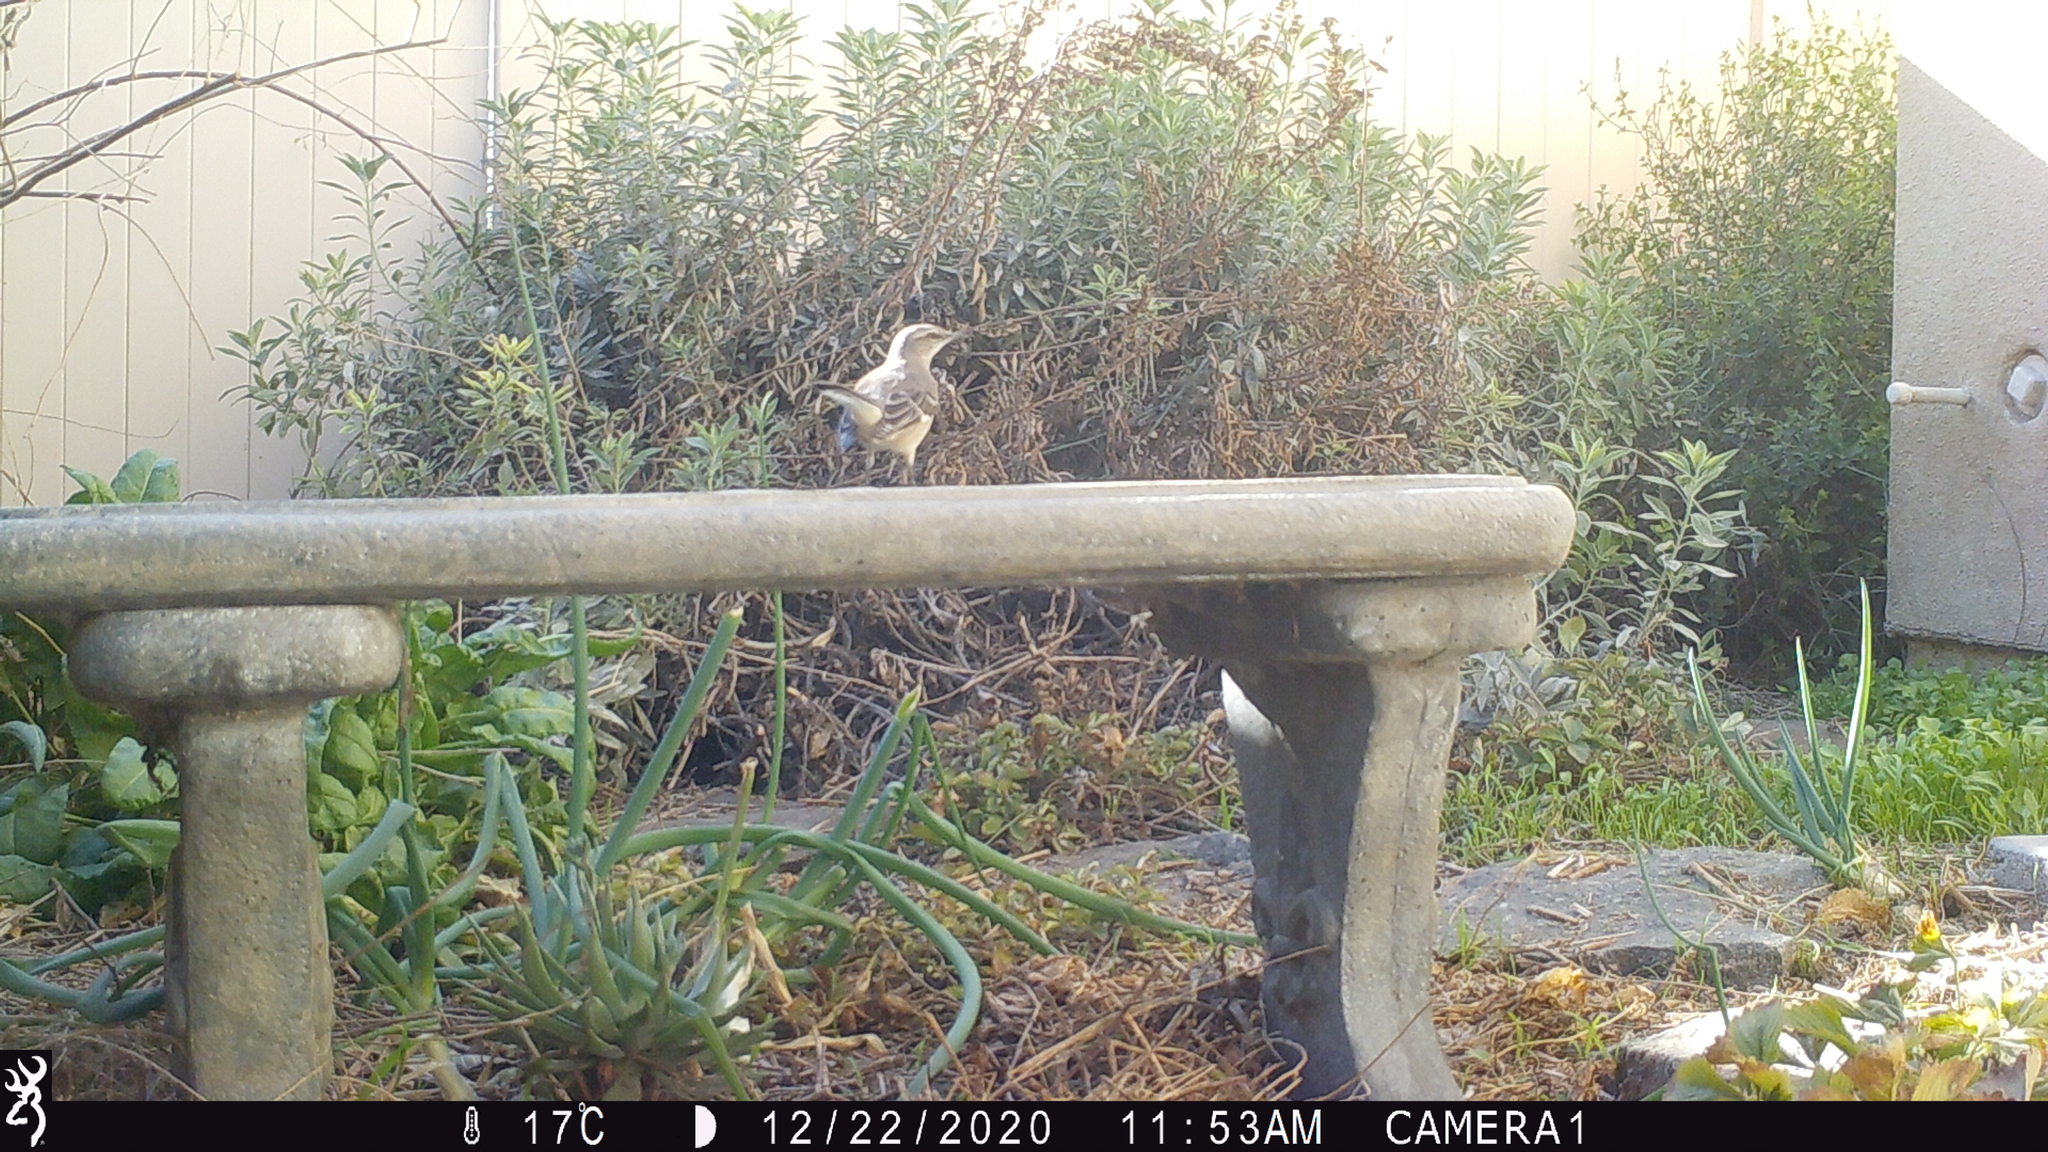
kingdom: Animalia
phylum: Chordata
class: Aves
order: Passeriformes
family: Mimidae
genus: Mimus
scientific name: Mimus polyglottos
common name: Northern mockingbird
